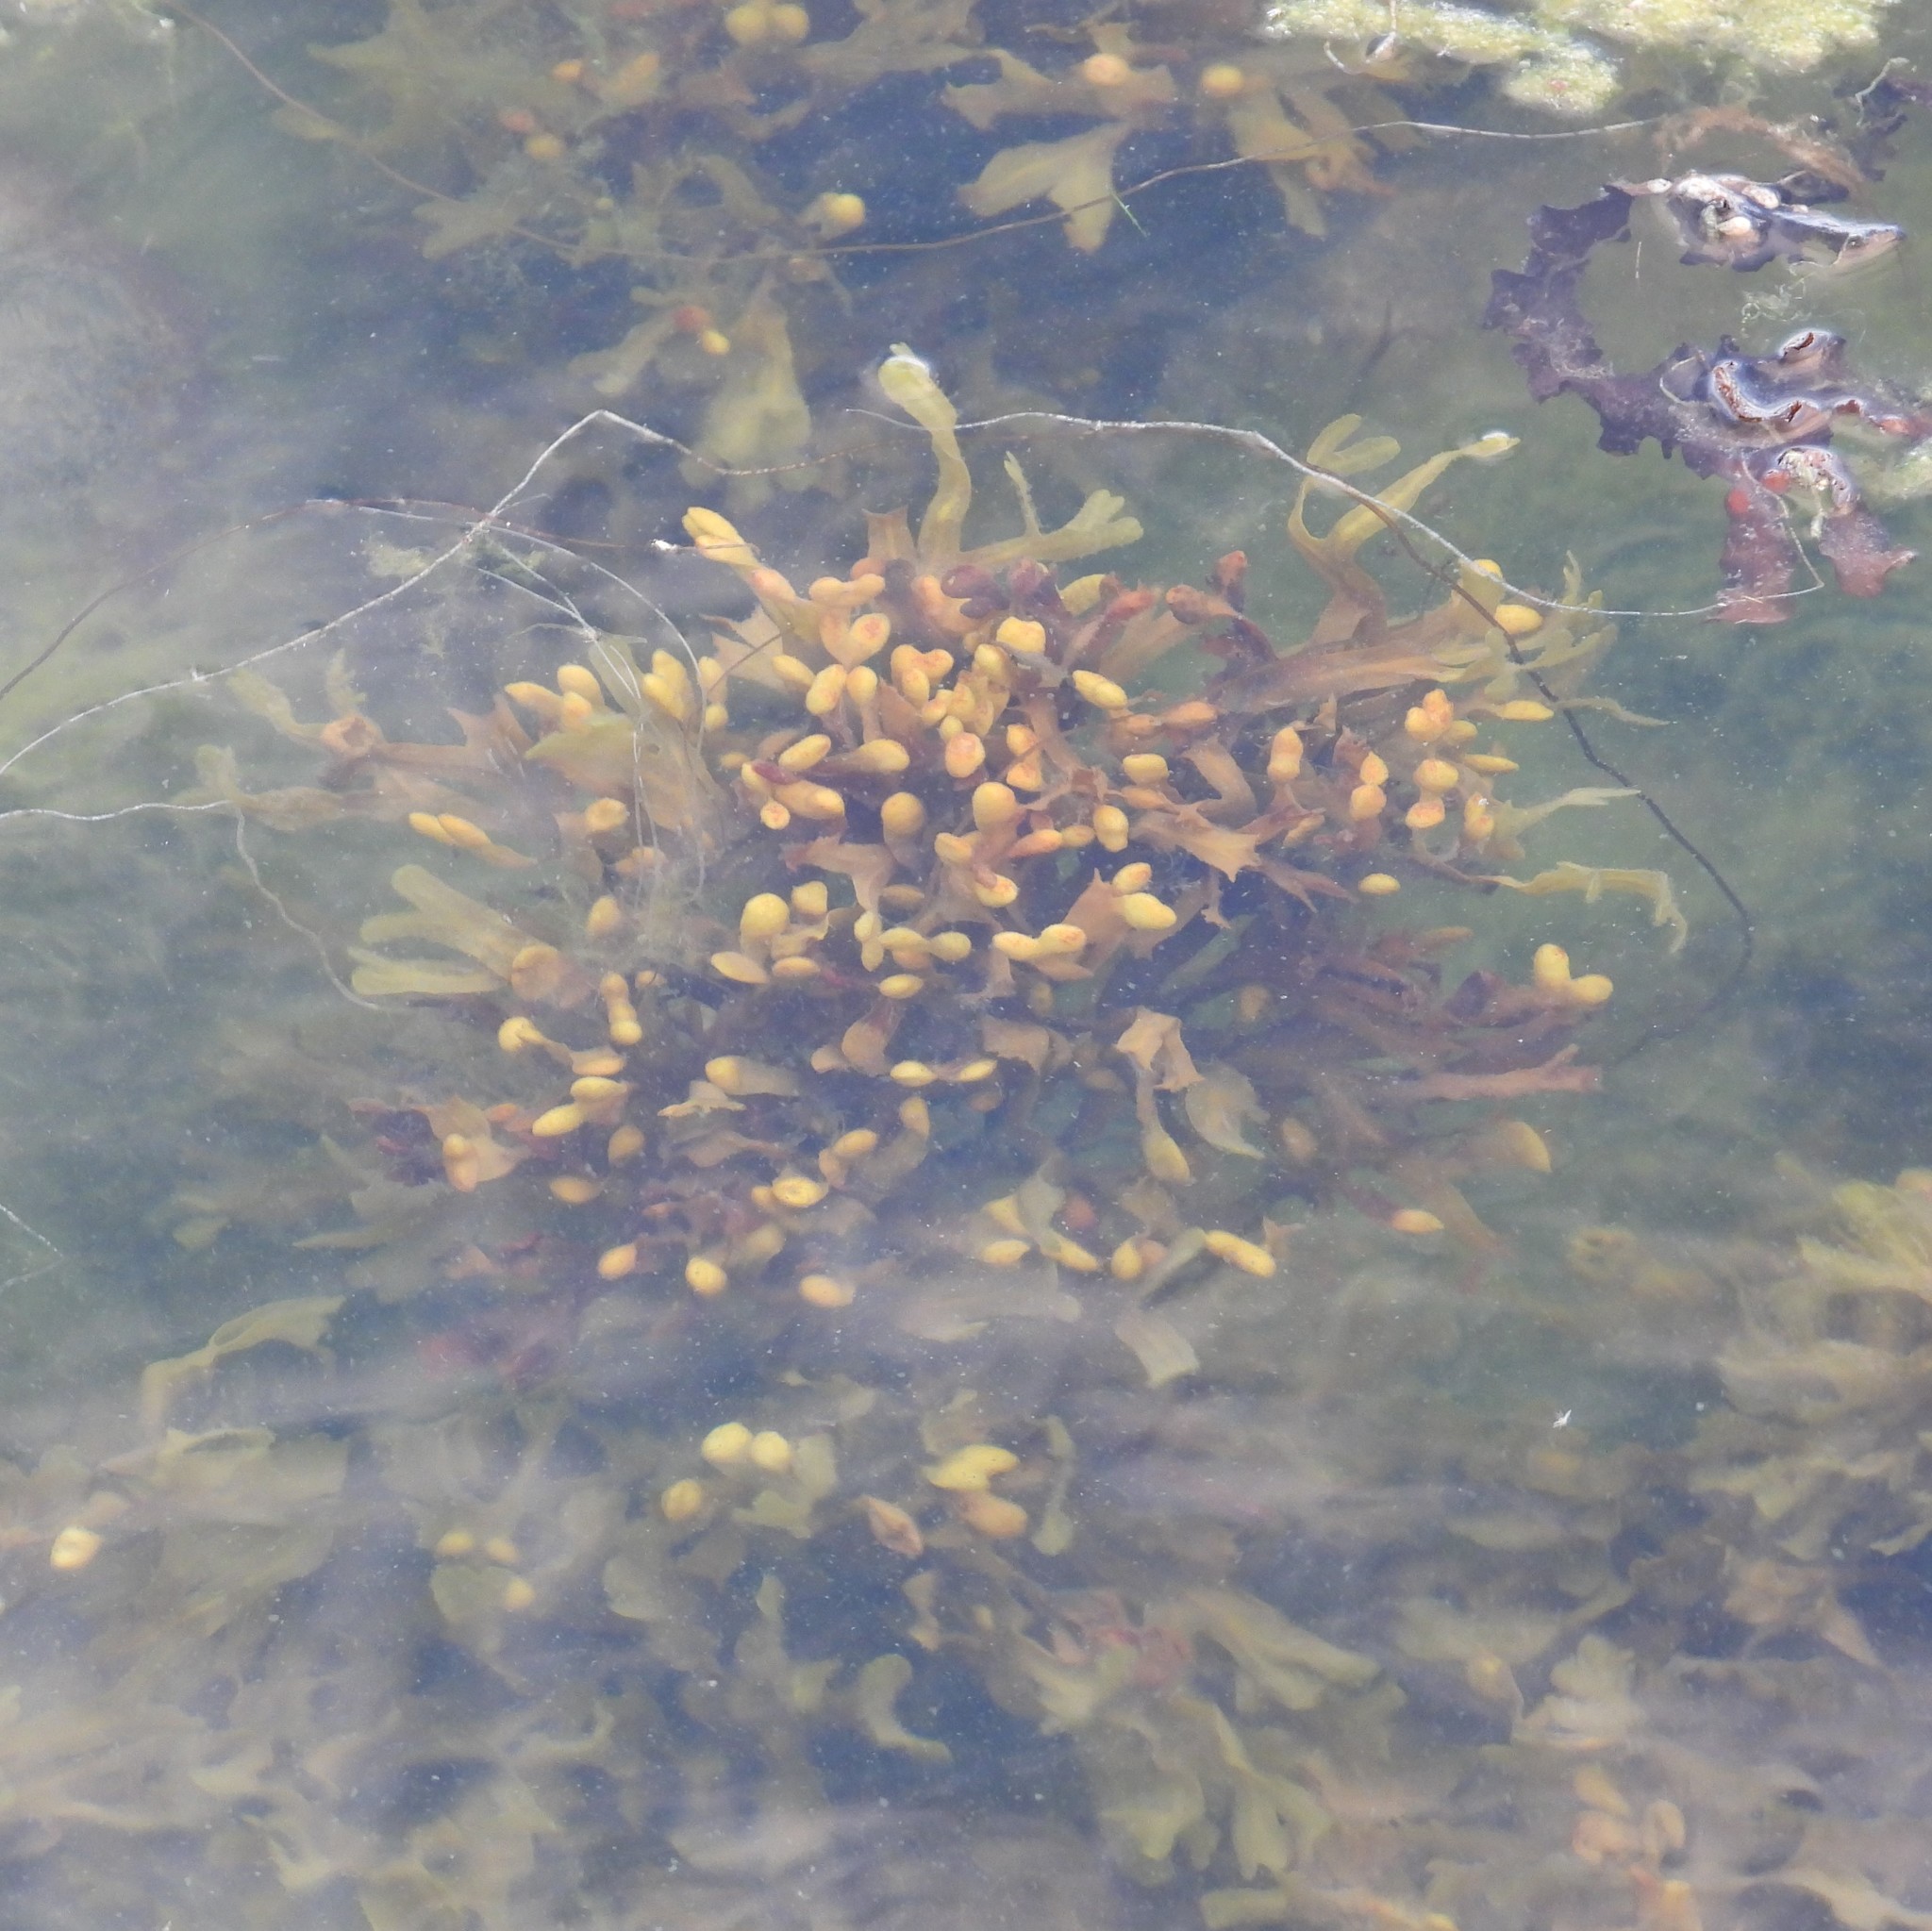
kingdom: Chromista
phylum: Ochrophyta
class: Phaeophyceae
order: Fucales
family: Fucaceae
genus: Fucus
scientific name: Fucus vesiculosus
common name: Bladder wrack
